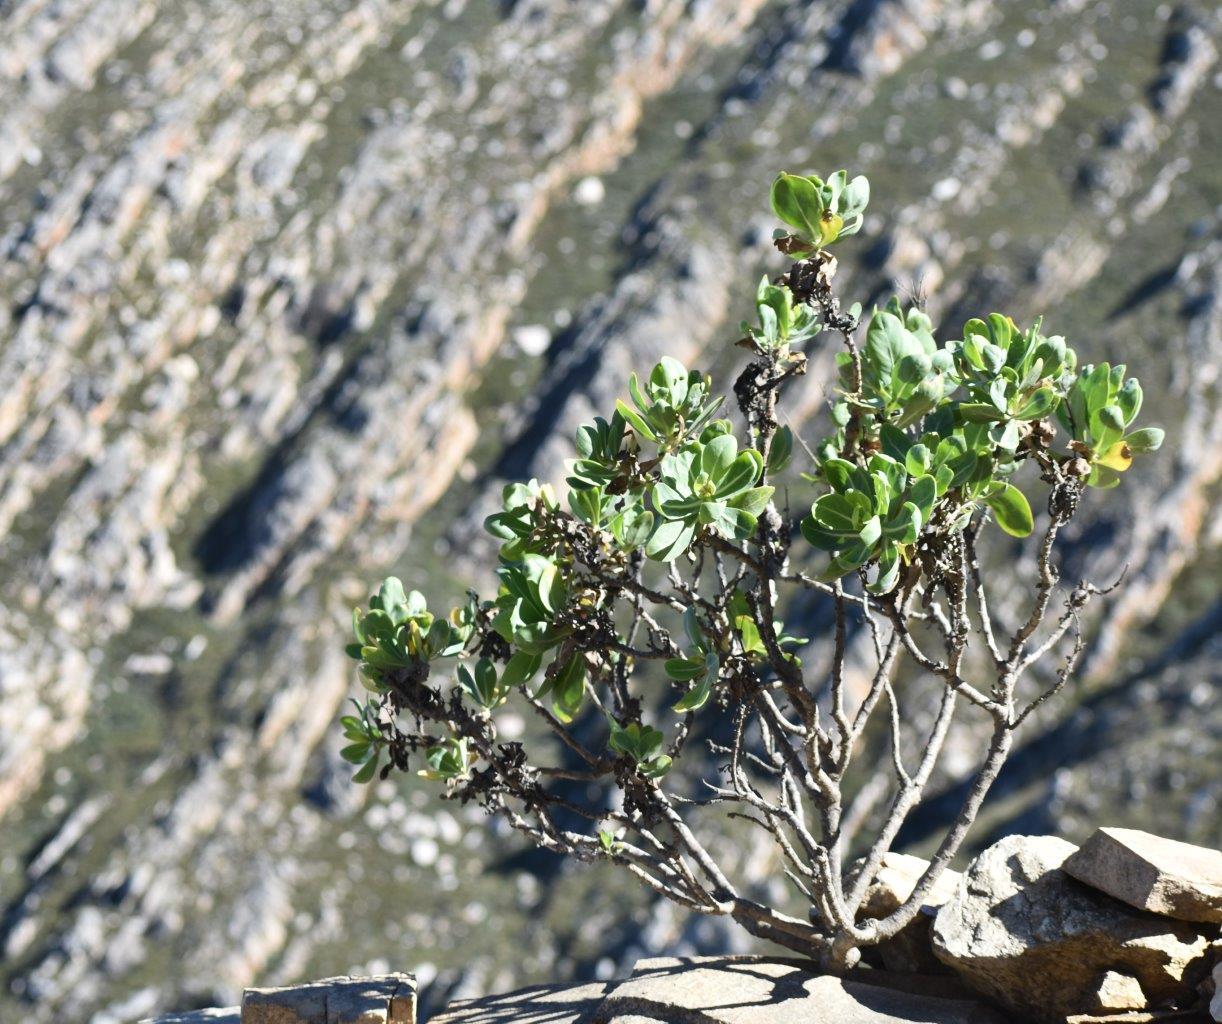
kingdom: Plantae
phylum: Tracheophyta
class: Magnoliopsida
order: Asterales
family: Asteraceae
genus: Othonna
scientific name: Othonna parviflora
